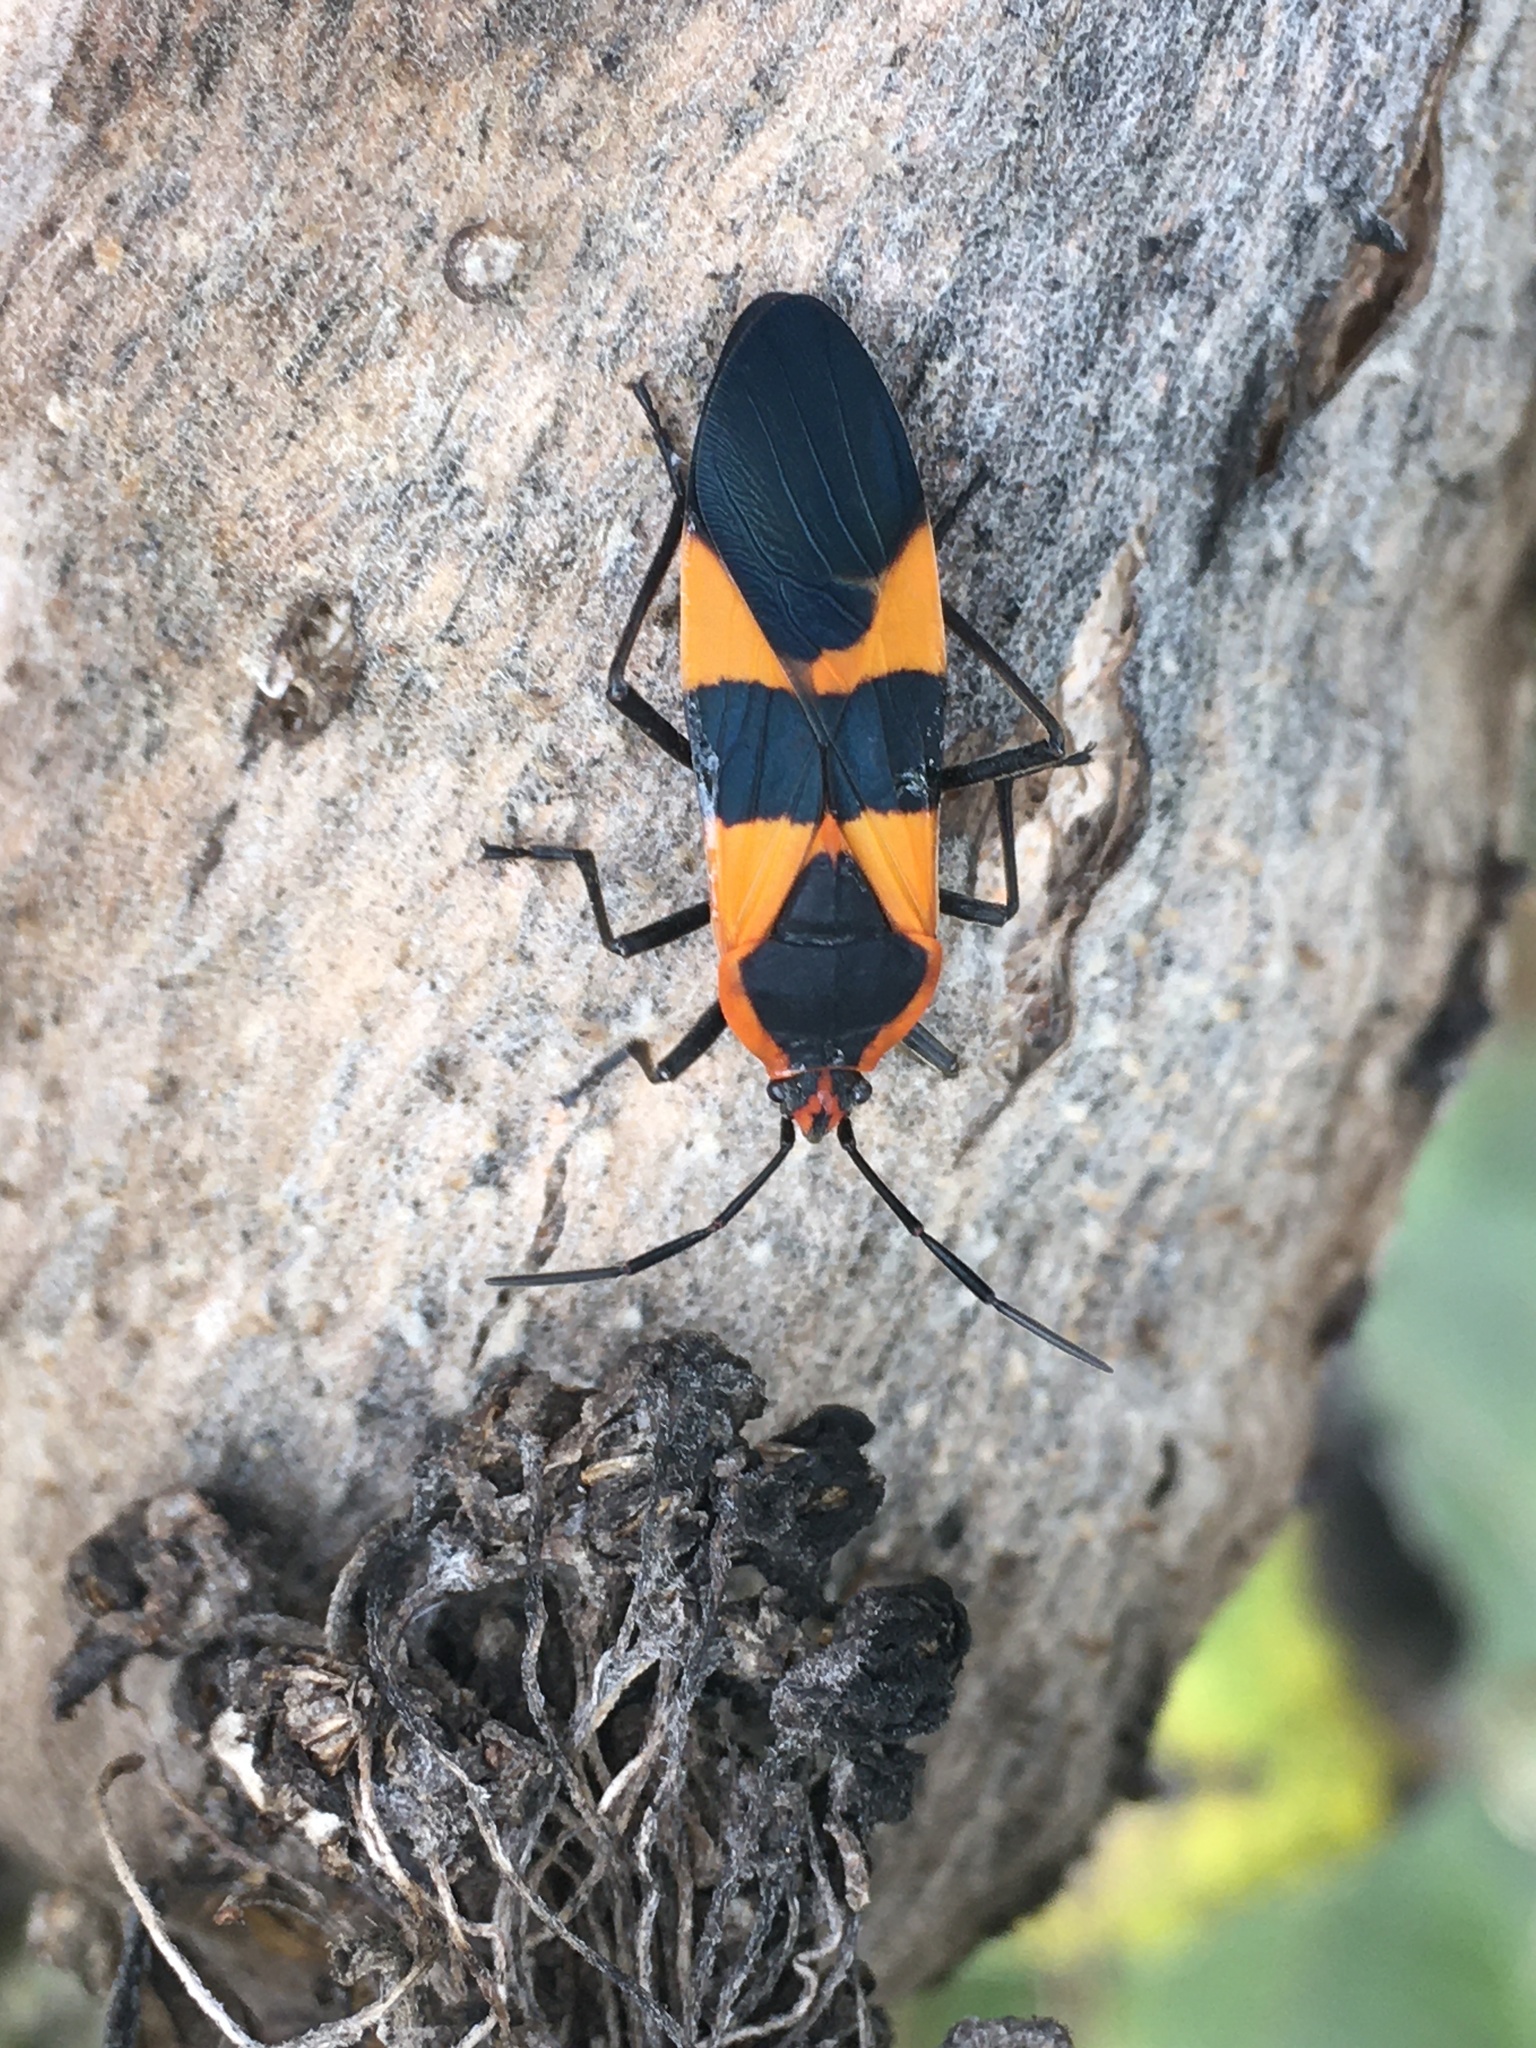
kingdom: Animalia
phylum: Arthropoda
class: Insecta
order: Hemiptera
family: Lygaeidae
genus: Oncopeltus
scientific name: Oncopeltus fasciatus
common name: Large milkweed bug
